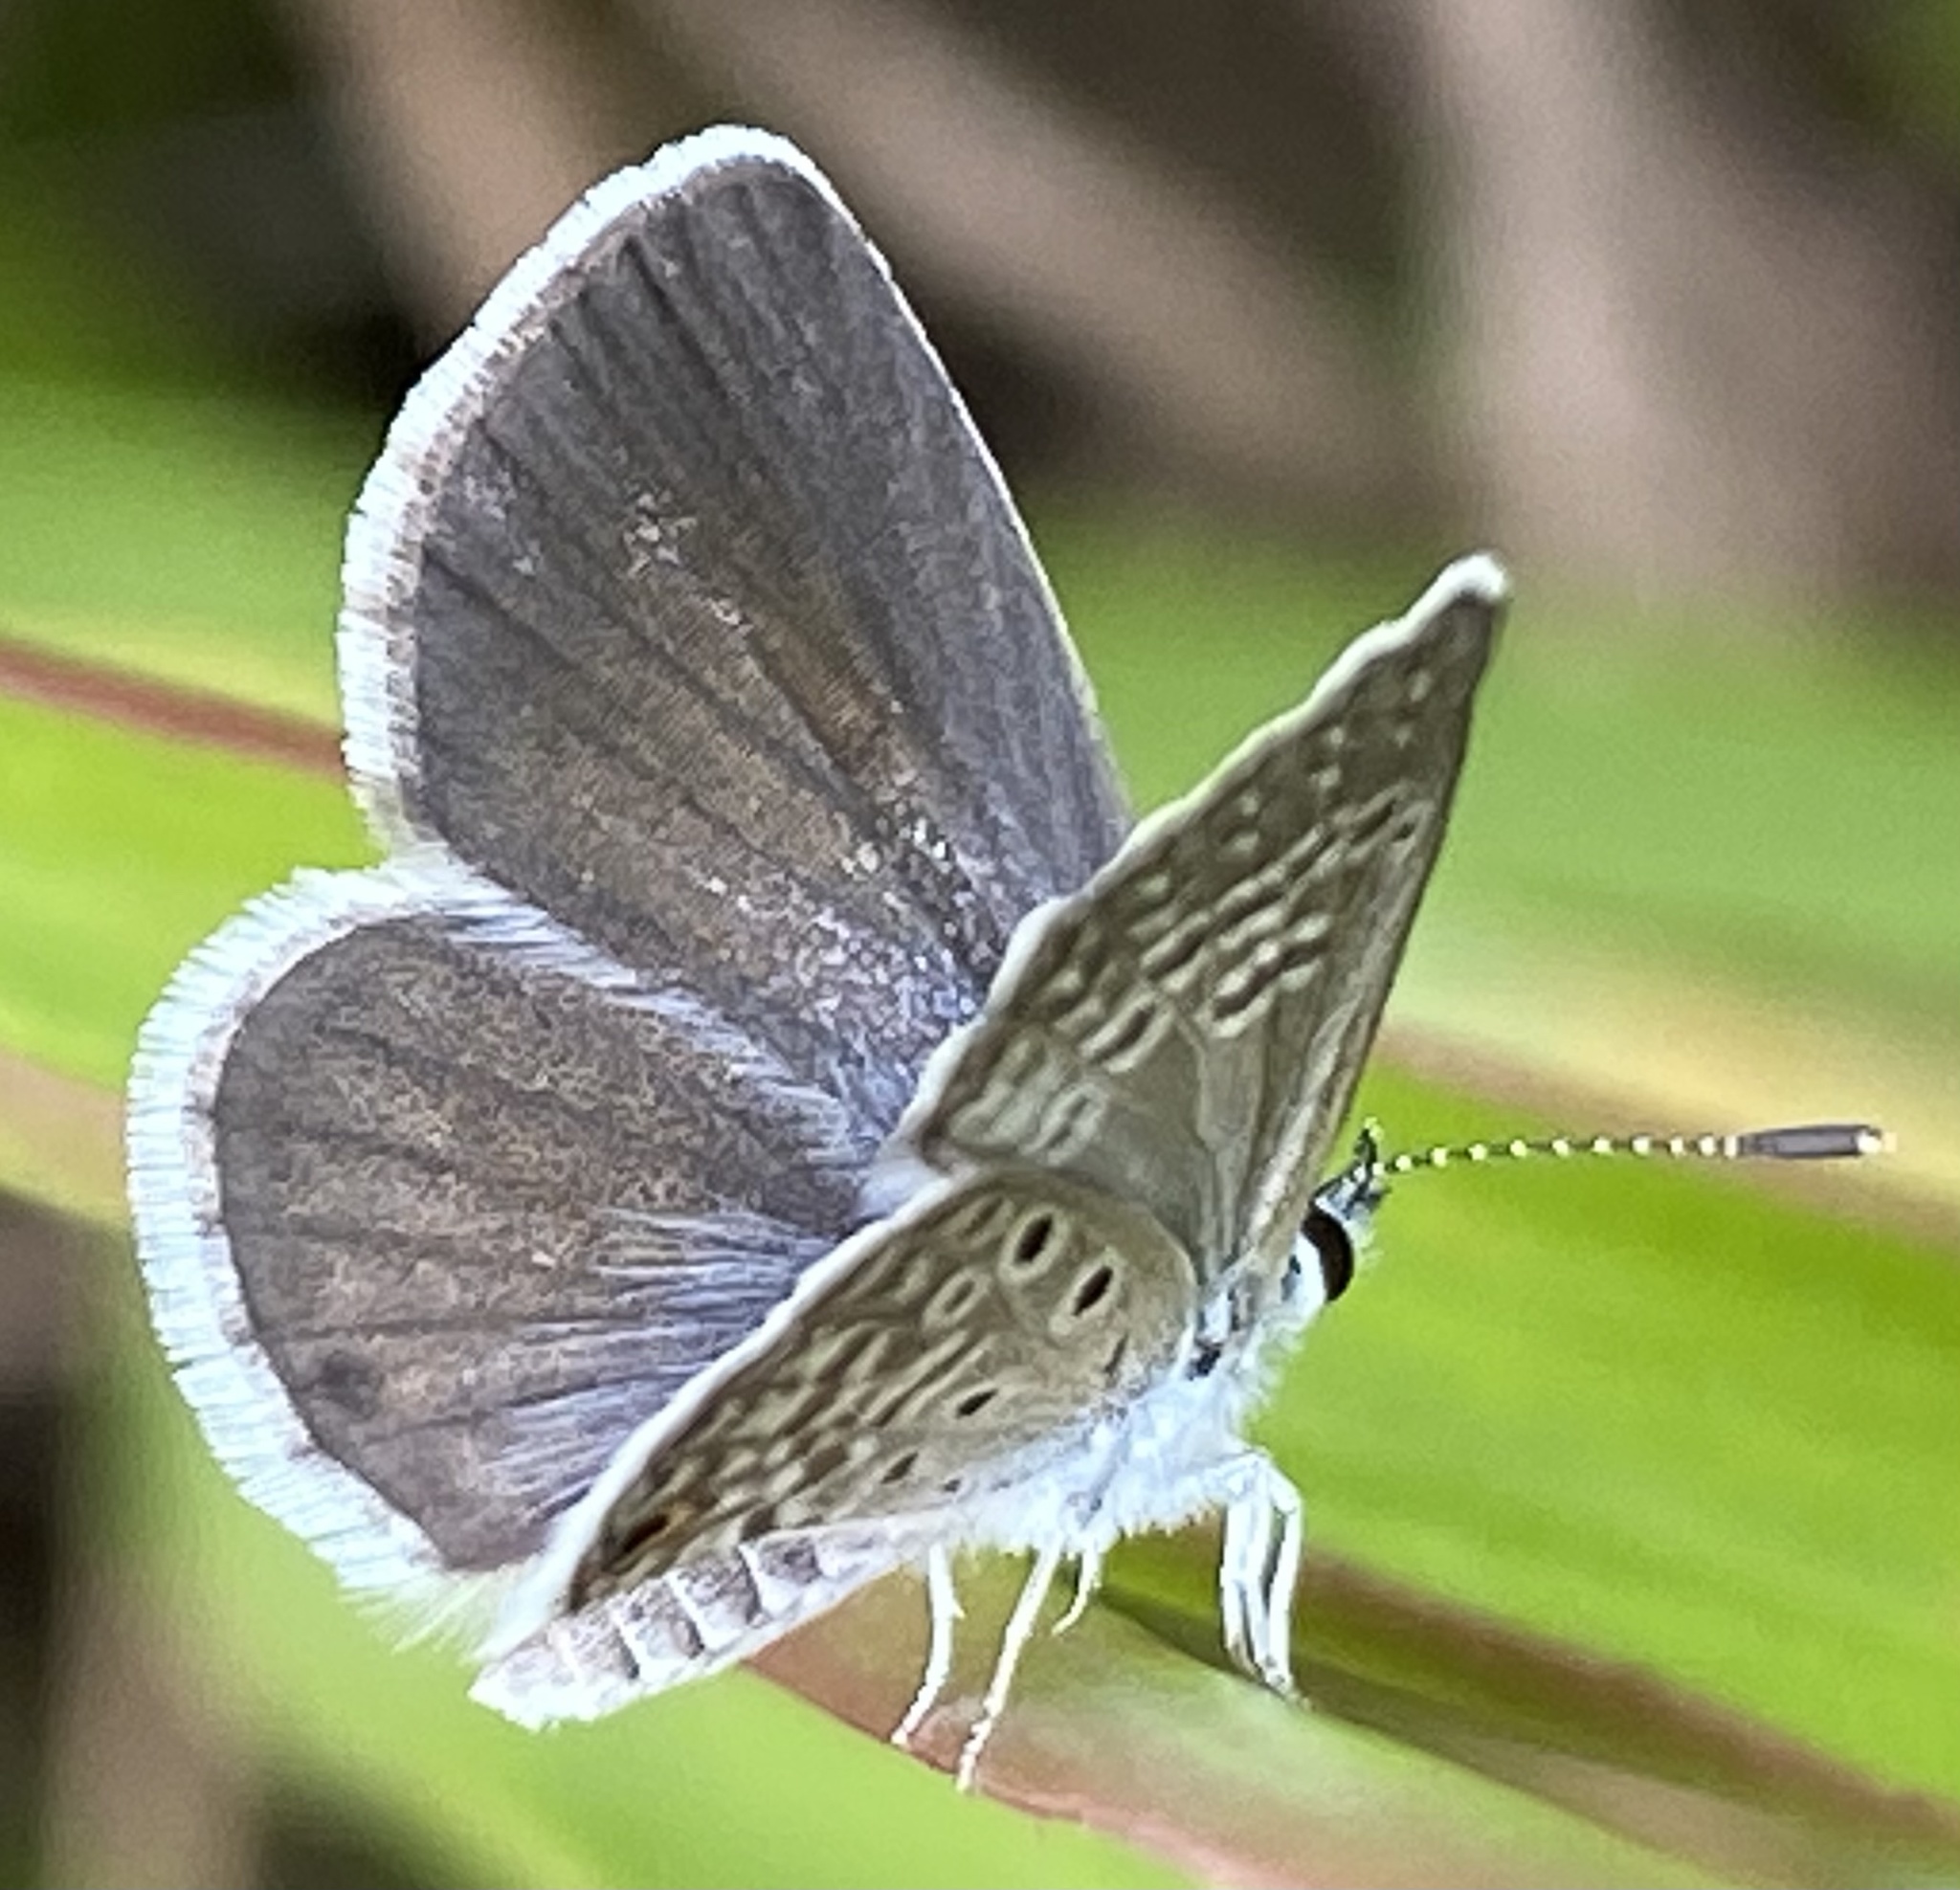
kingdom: Animalia
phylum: Arthropoda
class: Insecta
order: Lepidoptera
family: Lycaenidae
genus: Hemiargus
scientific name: Hemiargus hanno
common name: Common blue
